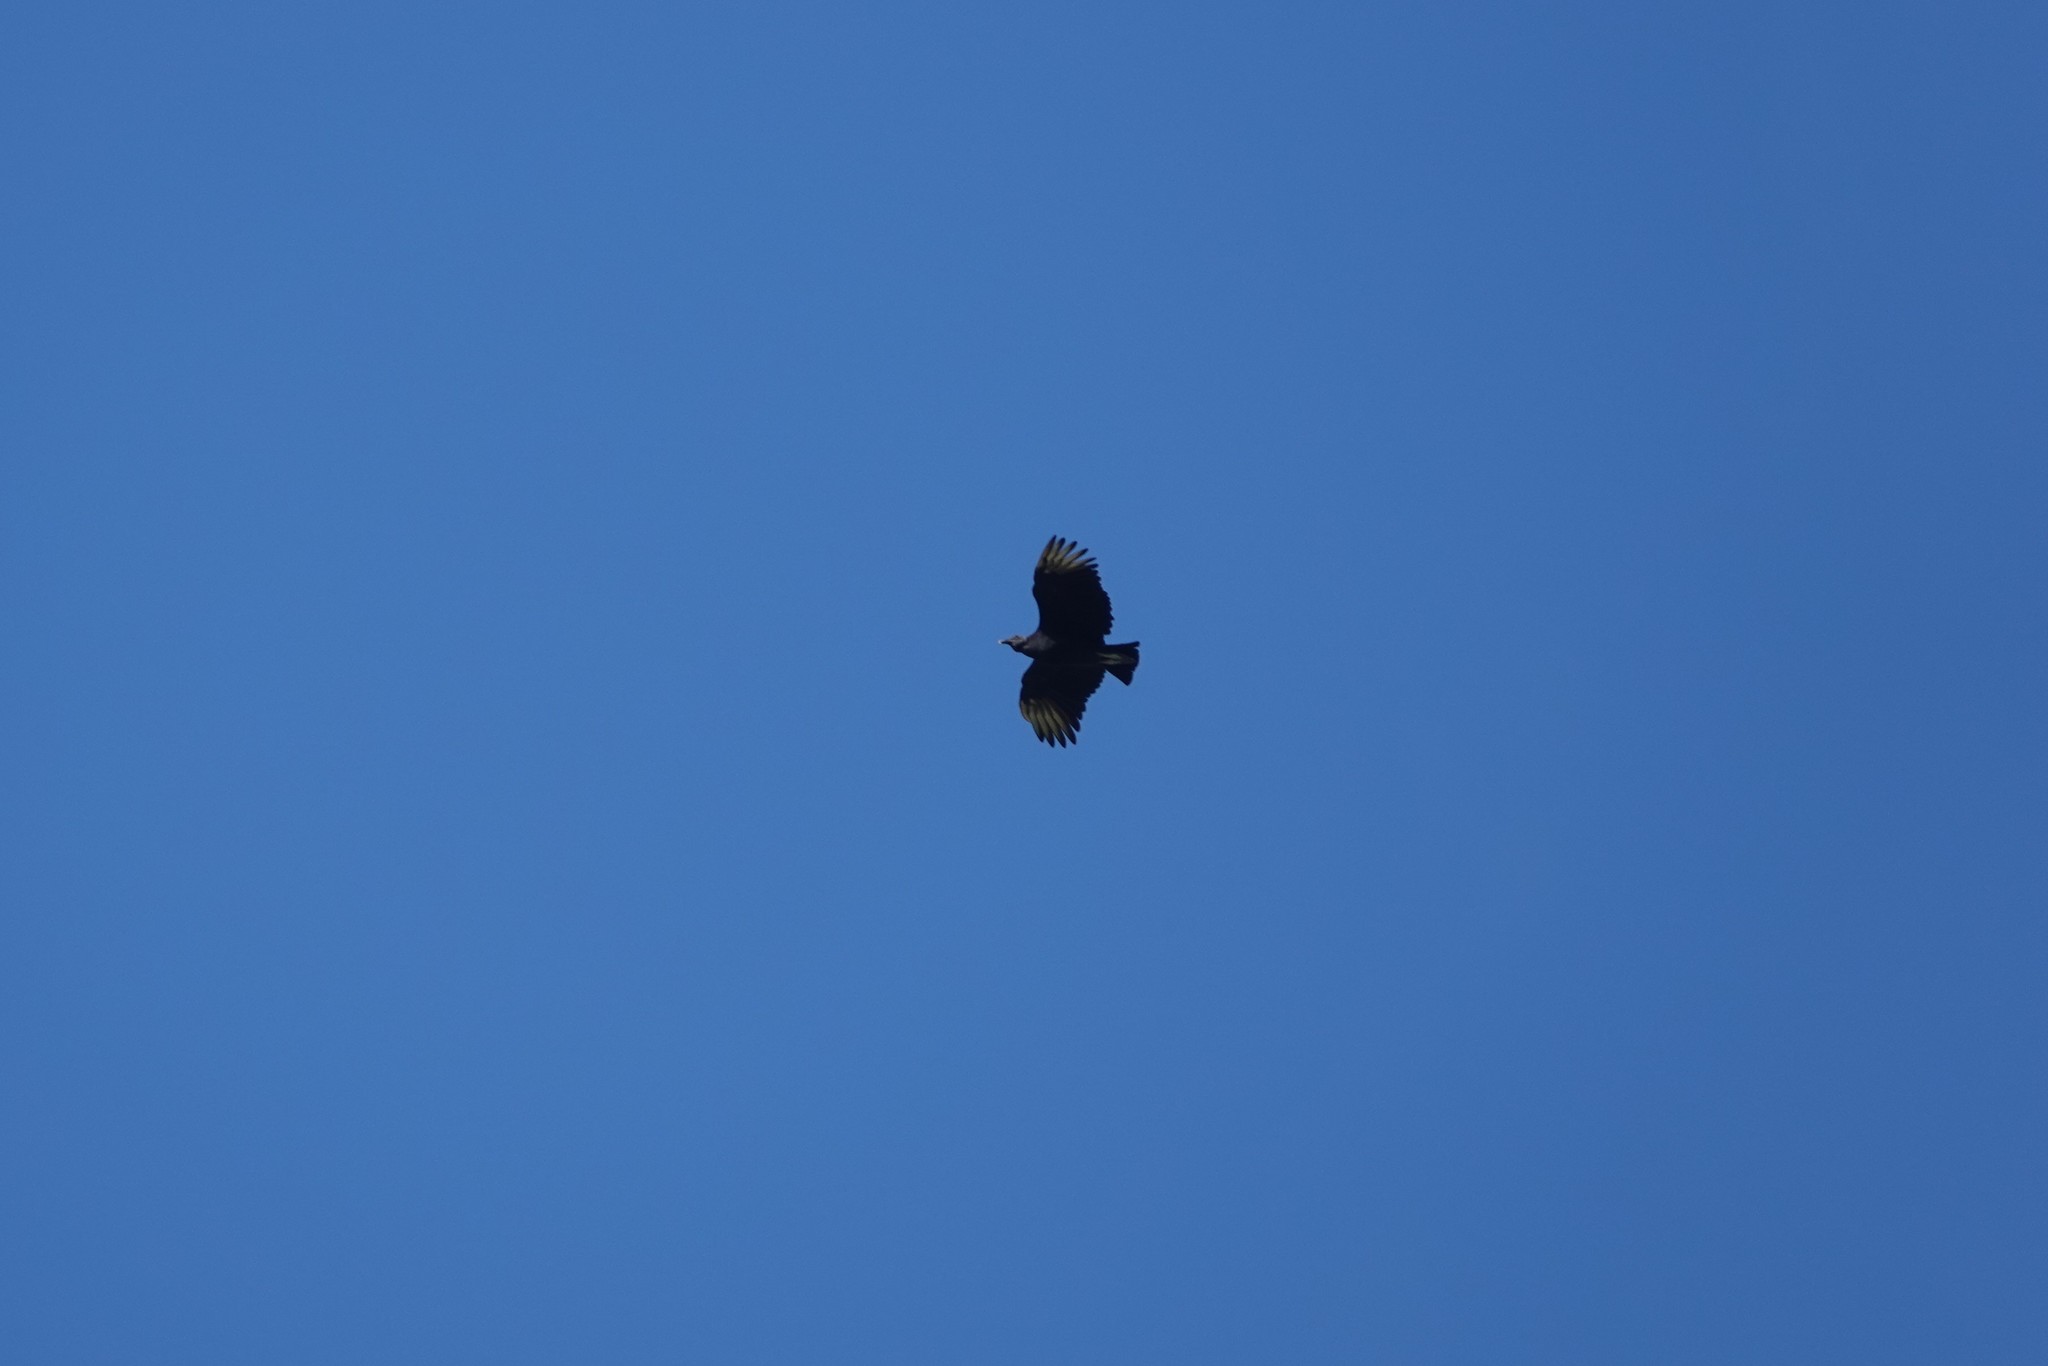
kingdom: Animalia
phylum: Chordata
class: Aves
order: Accipitriformes
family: Cathartidae
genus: Coragyps
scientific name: Coragyps atratus
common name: Black vulture
